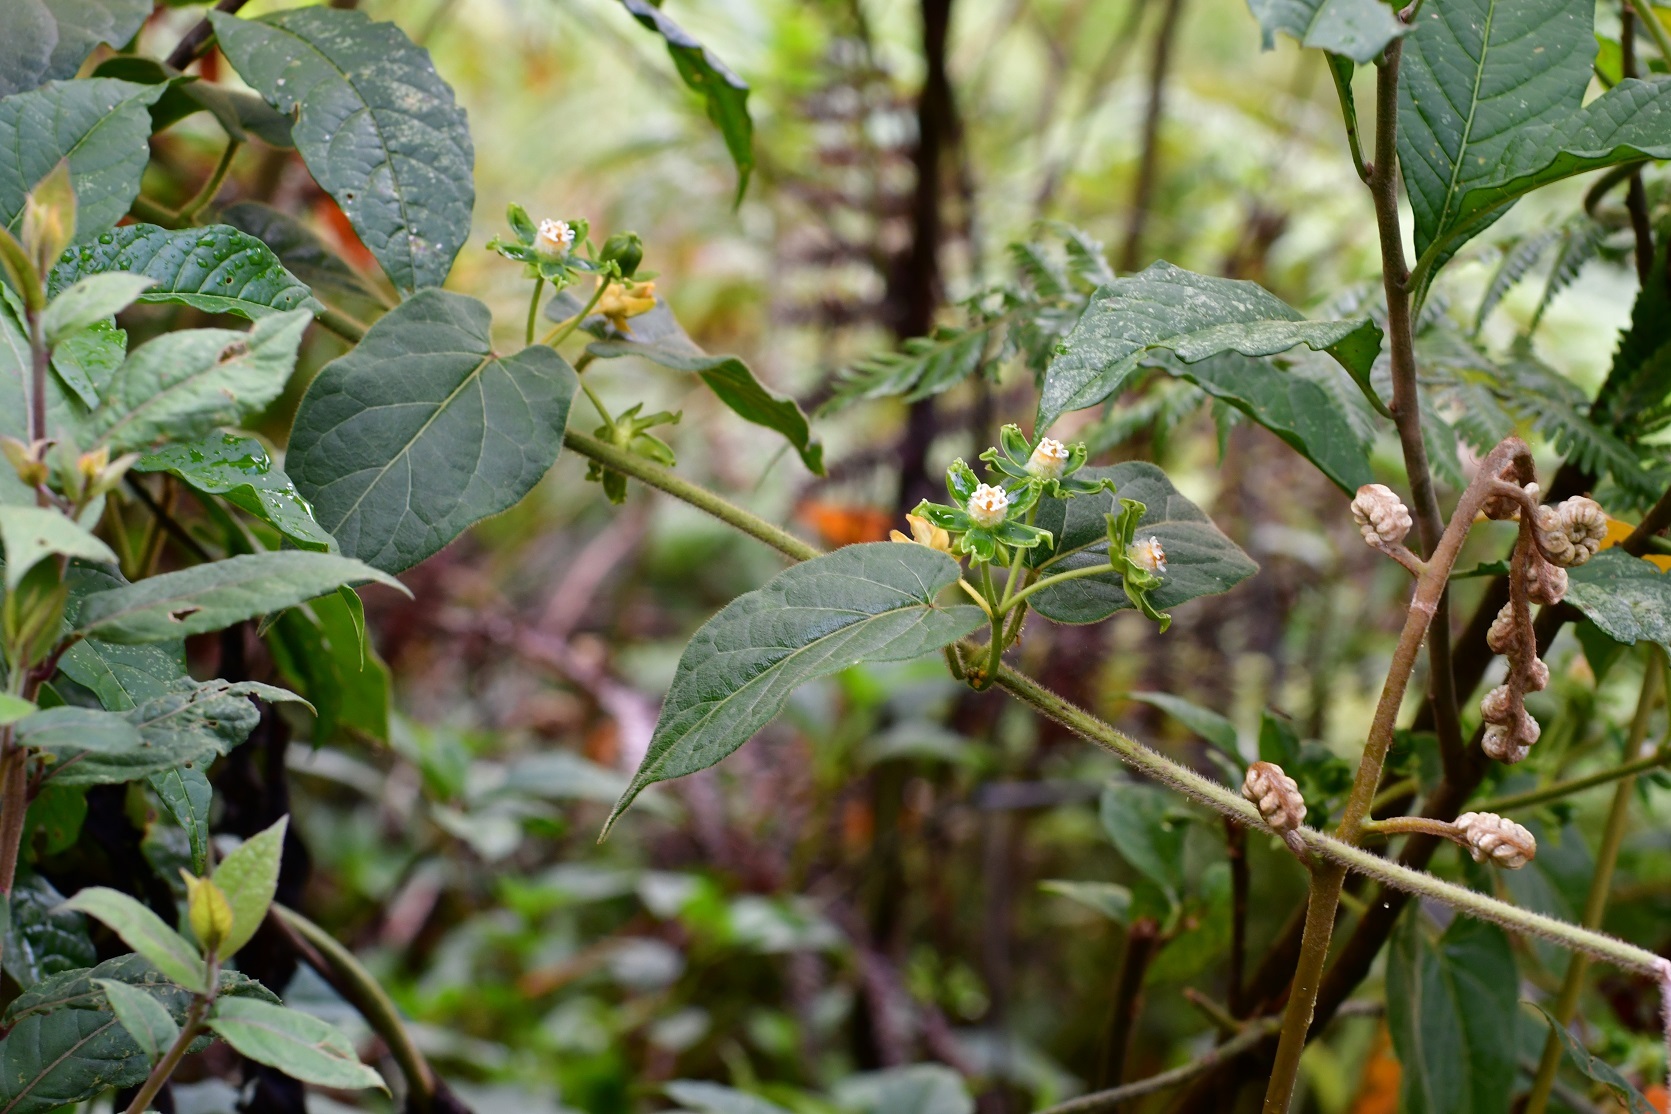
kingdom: Plantae
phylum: Tracheophyta
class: Magnoliopsida
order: Gentianales
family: Apocynaceae
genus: Gonolobus
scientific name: Gonolobus stenosepalus
